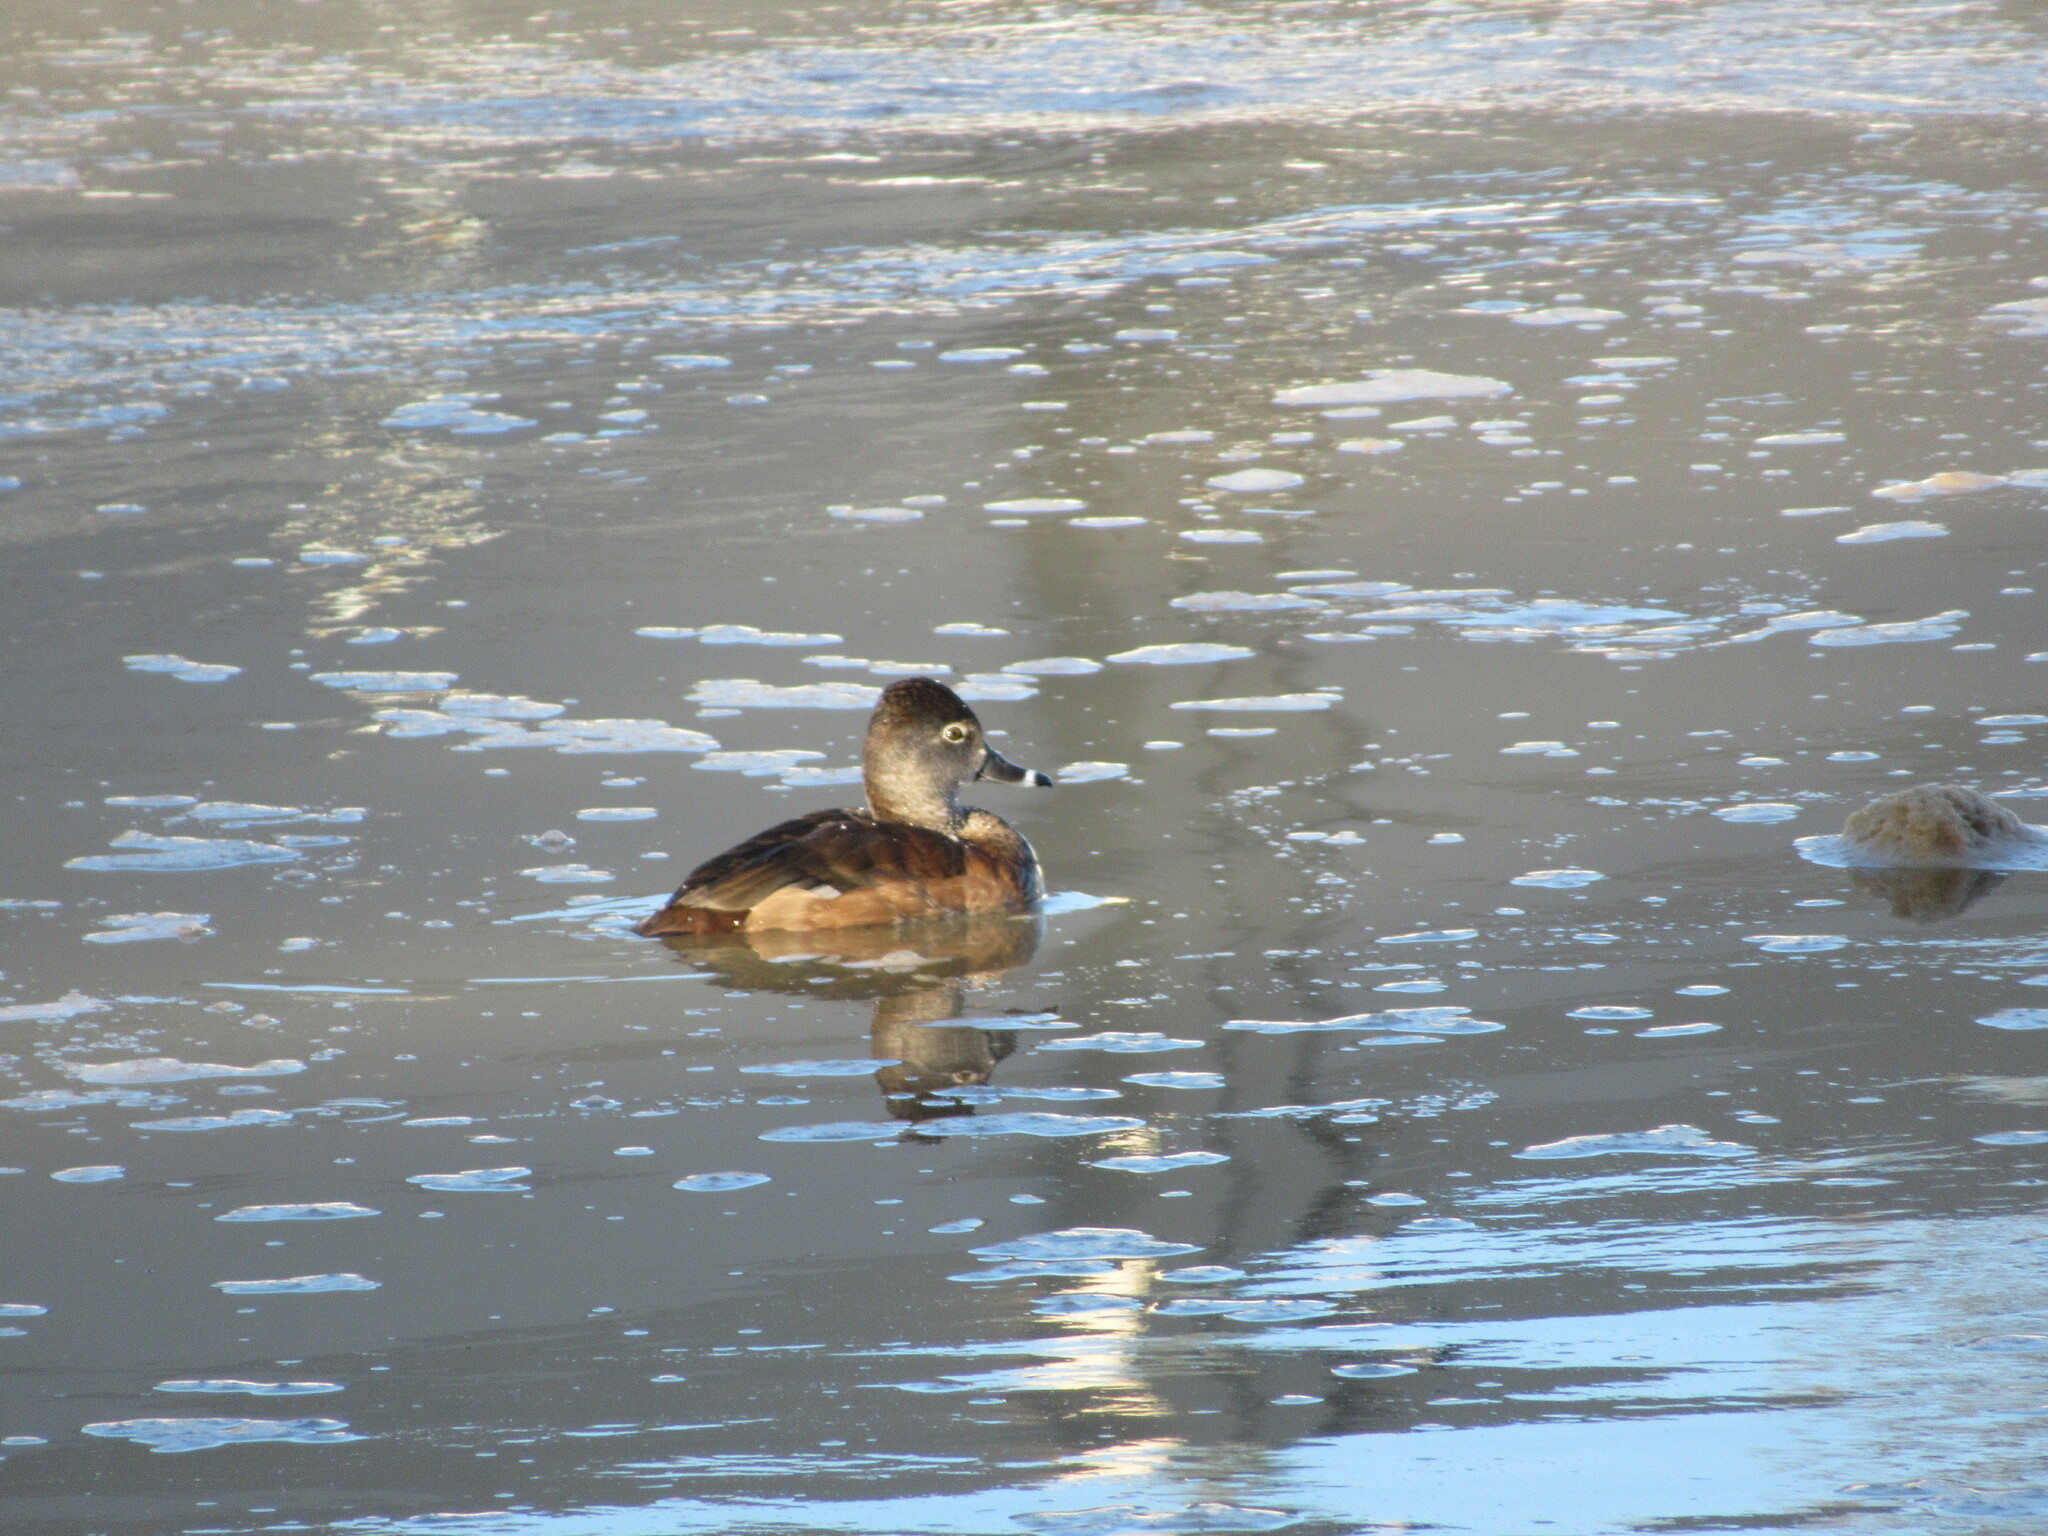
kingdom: Animalia
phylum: Chordata
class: Aves
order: Anseriformes
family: Anatidae
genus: Aythya
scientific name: Aythya collaris
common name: Ring-necked duck
